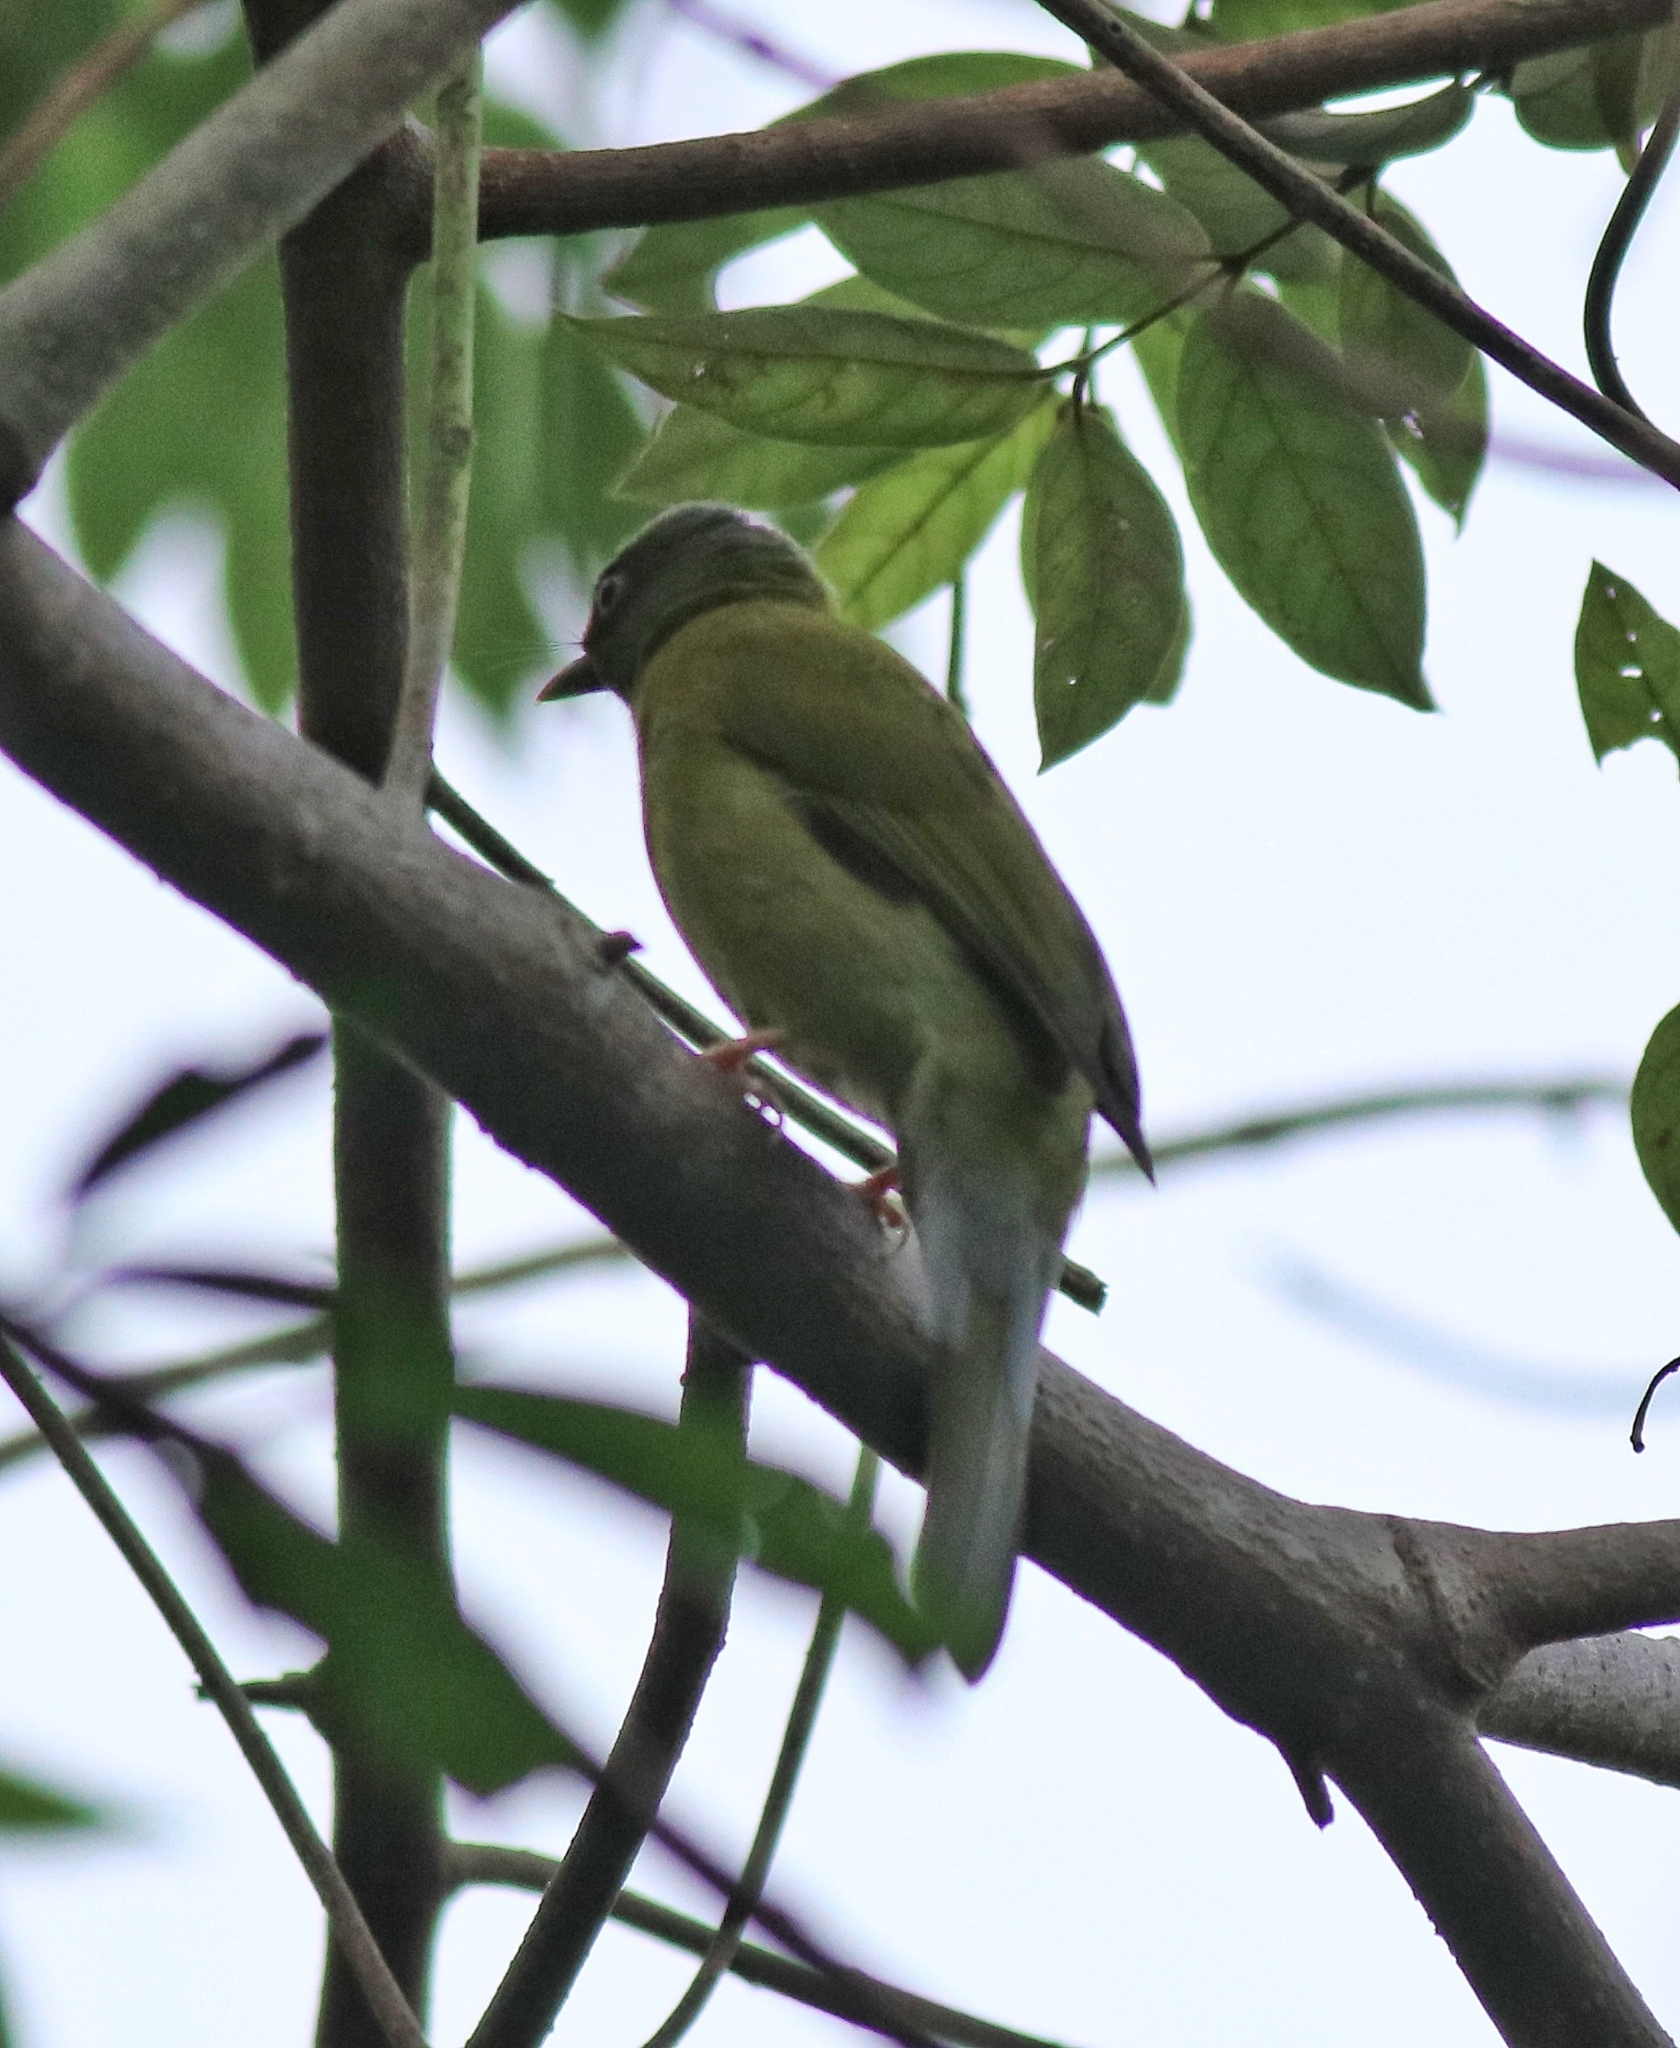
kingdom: Animalia
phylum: Chordata
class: Aves
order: Passeriformes
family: Pycnonotidae
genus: Microtarsus
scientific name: Microtarsus
